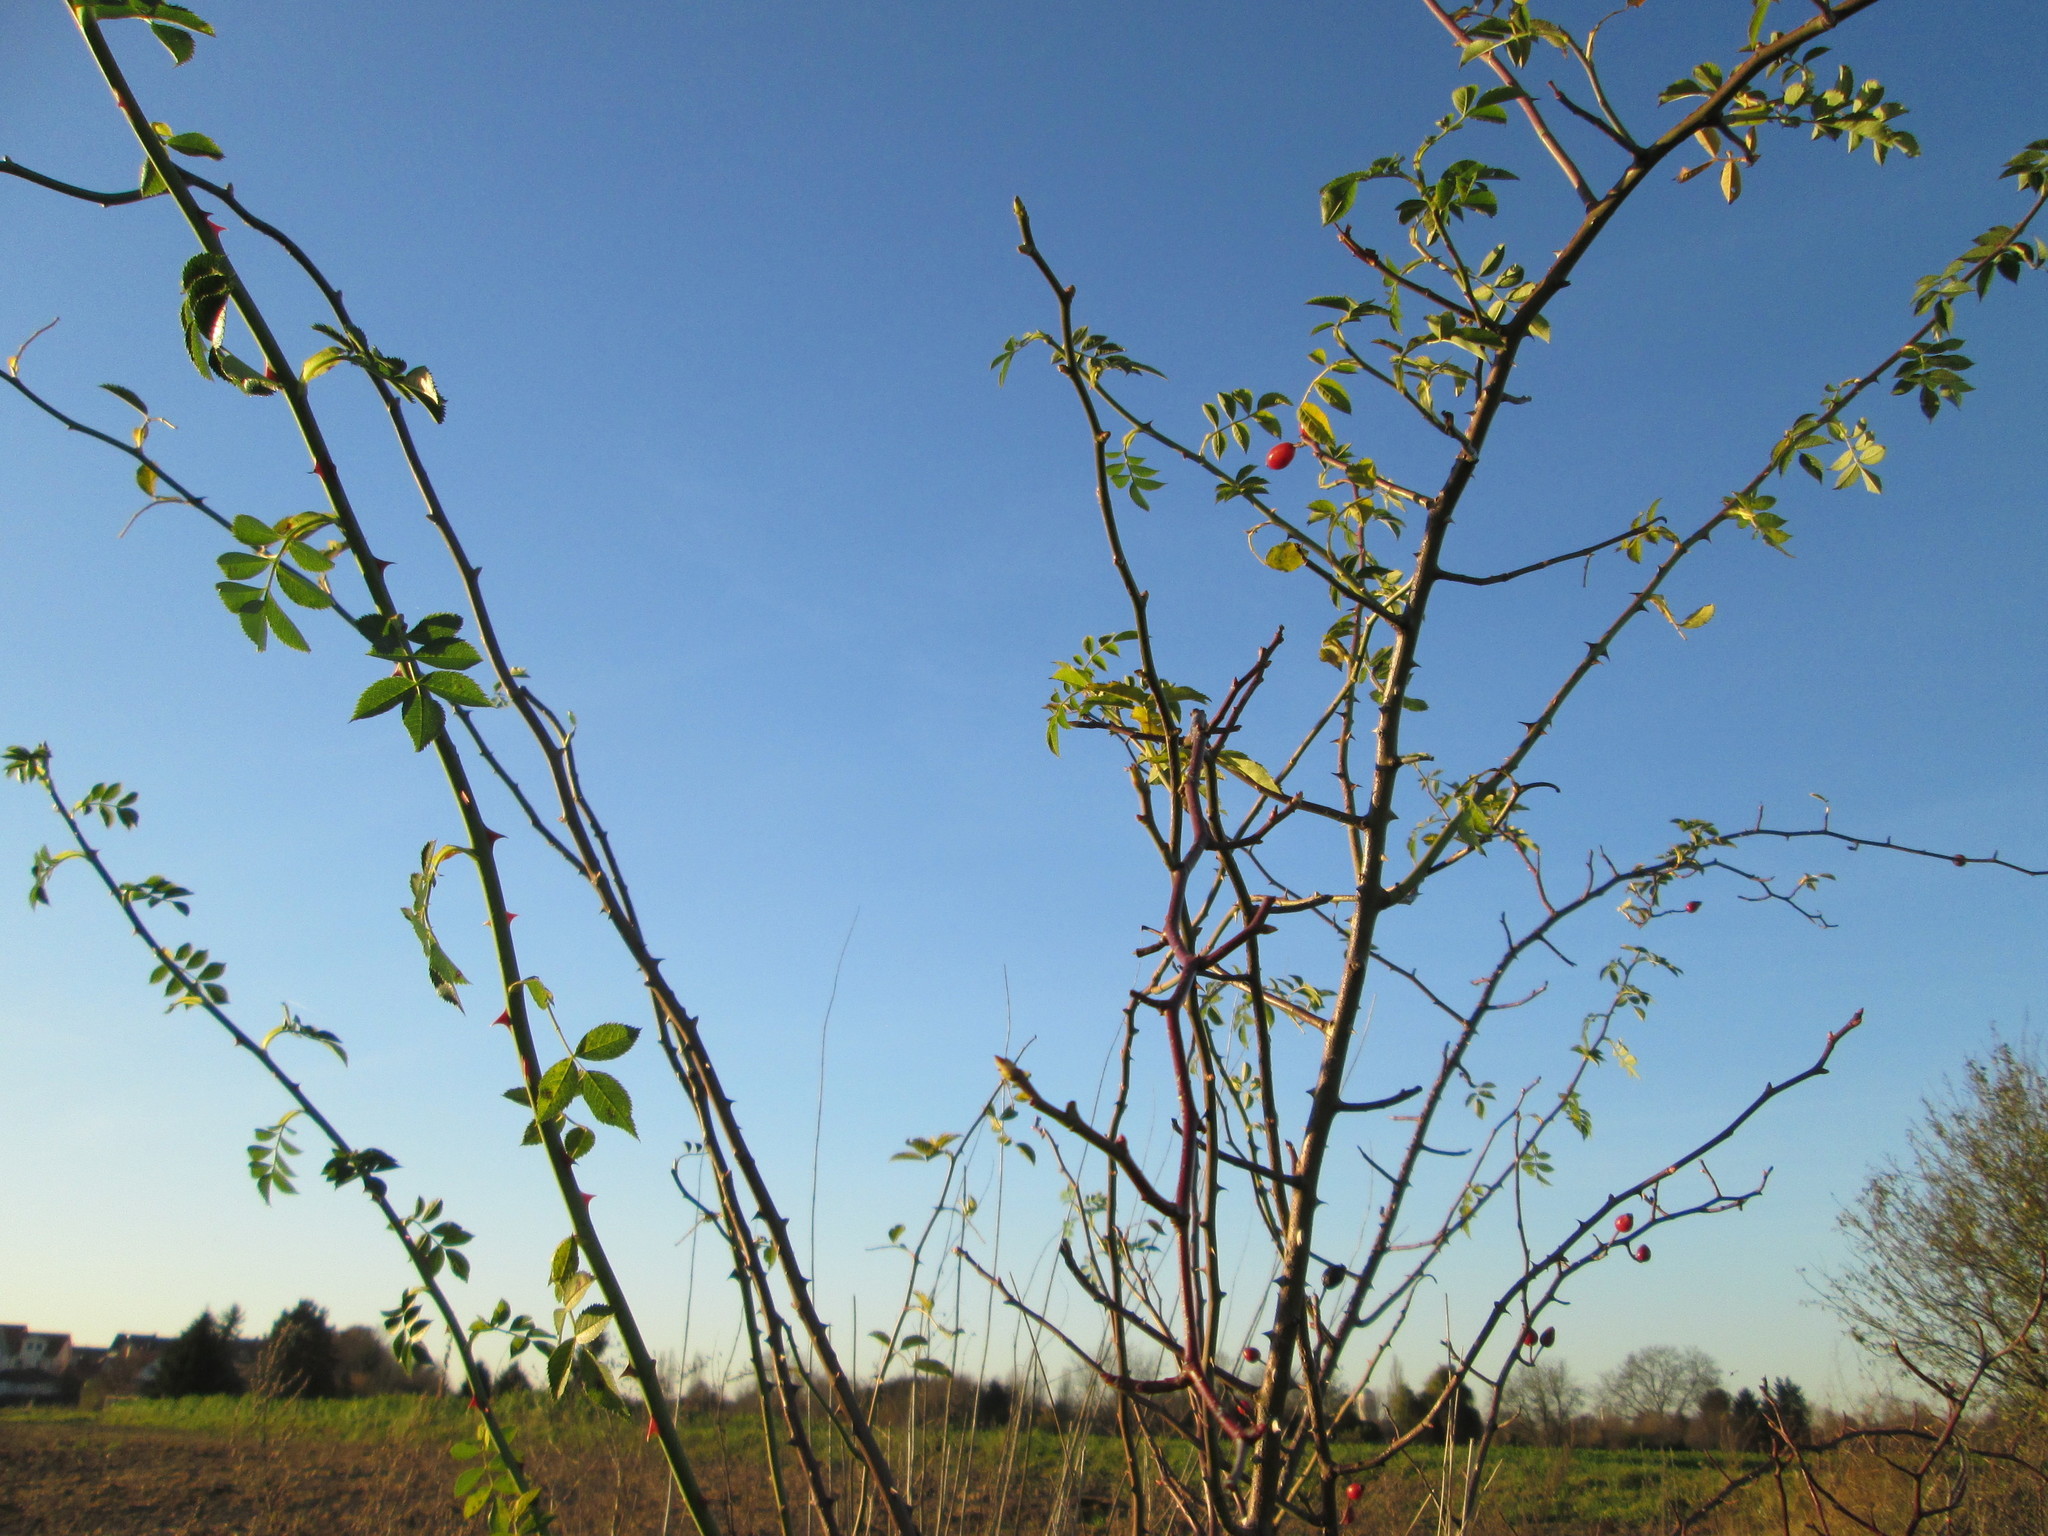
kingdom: Plantae
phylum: Tracheophyta
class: Magnoliopsida
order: Rosales
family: Rosaceae
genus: Rosa
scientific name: Rosa canina
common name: Dog rose
